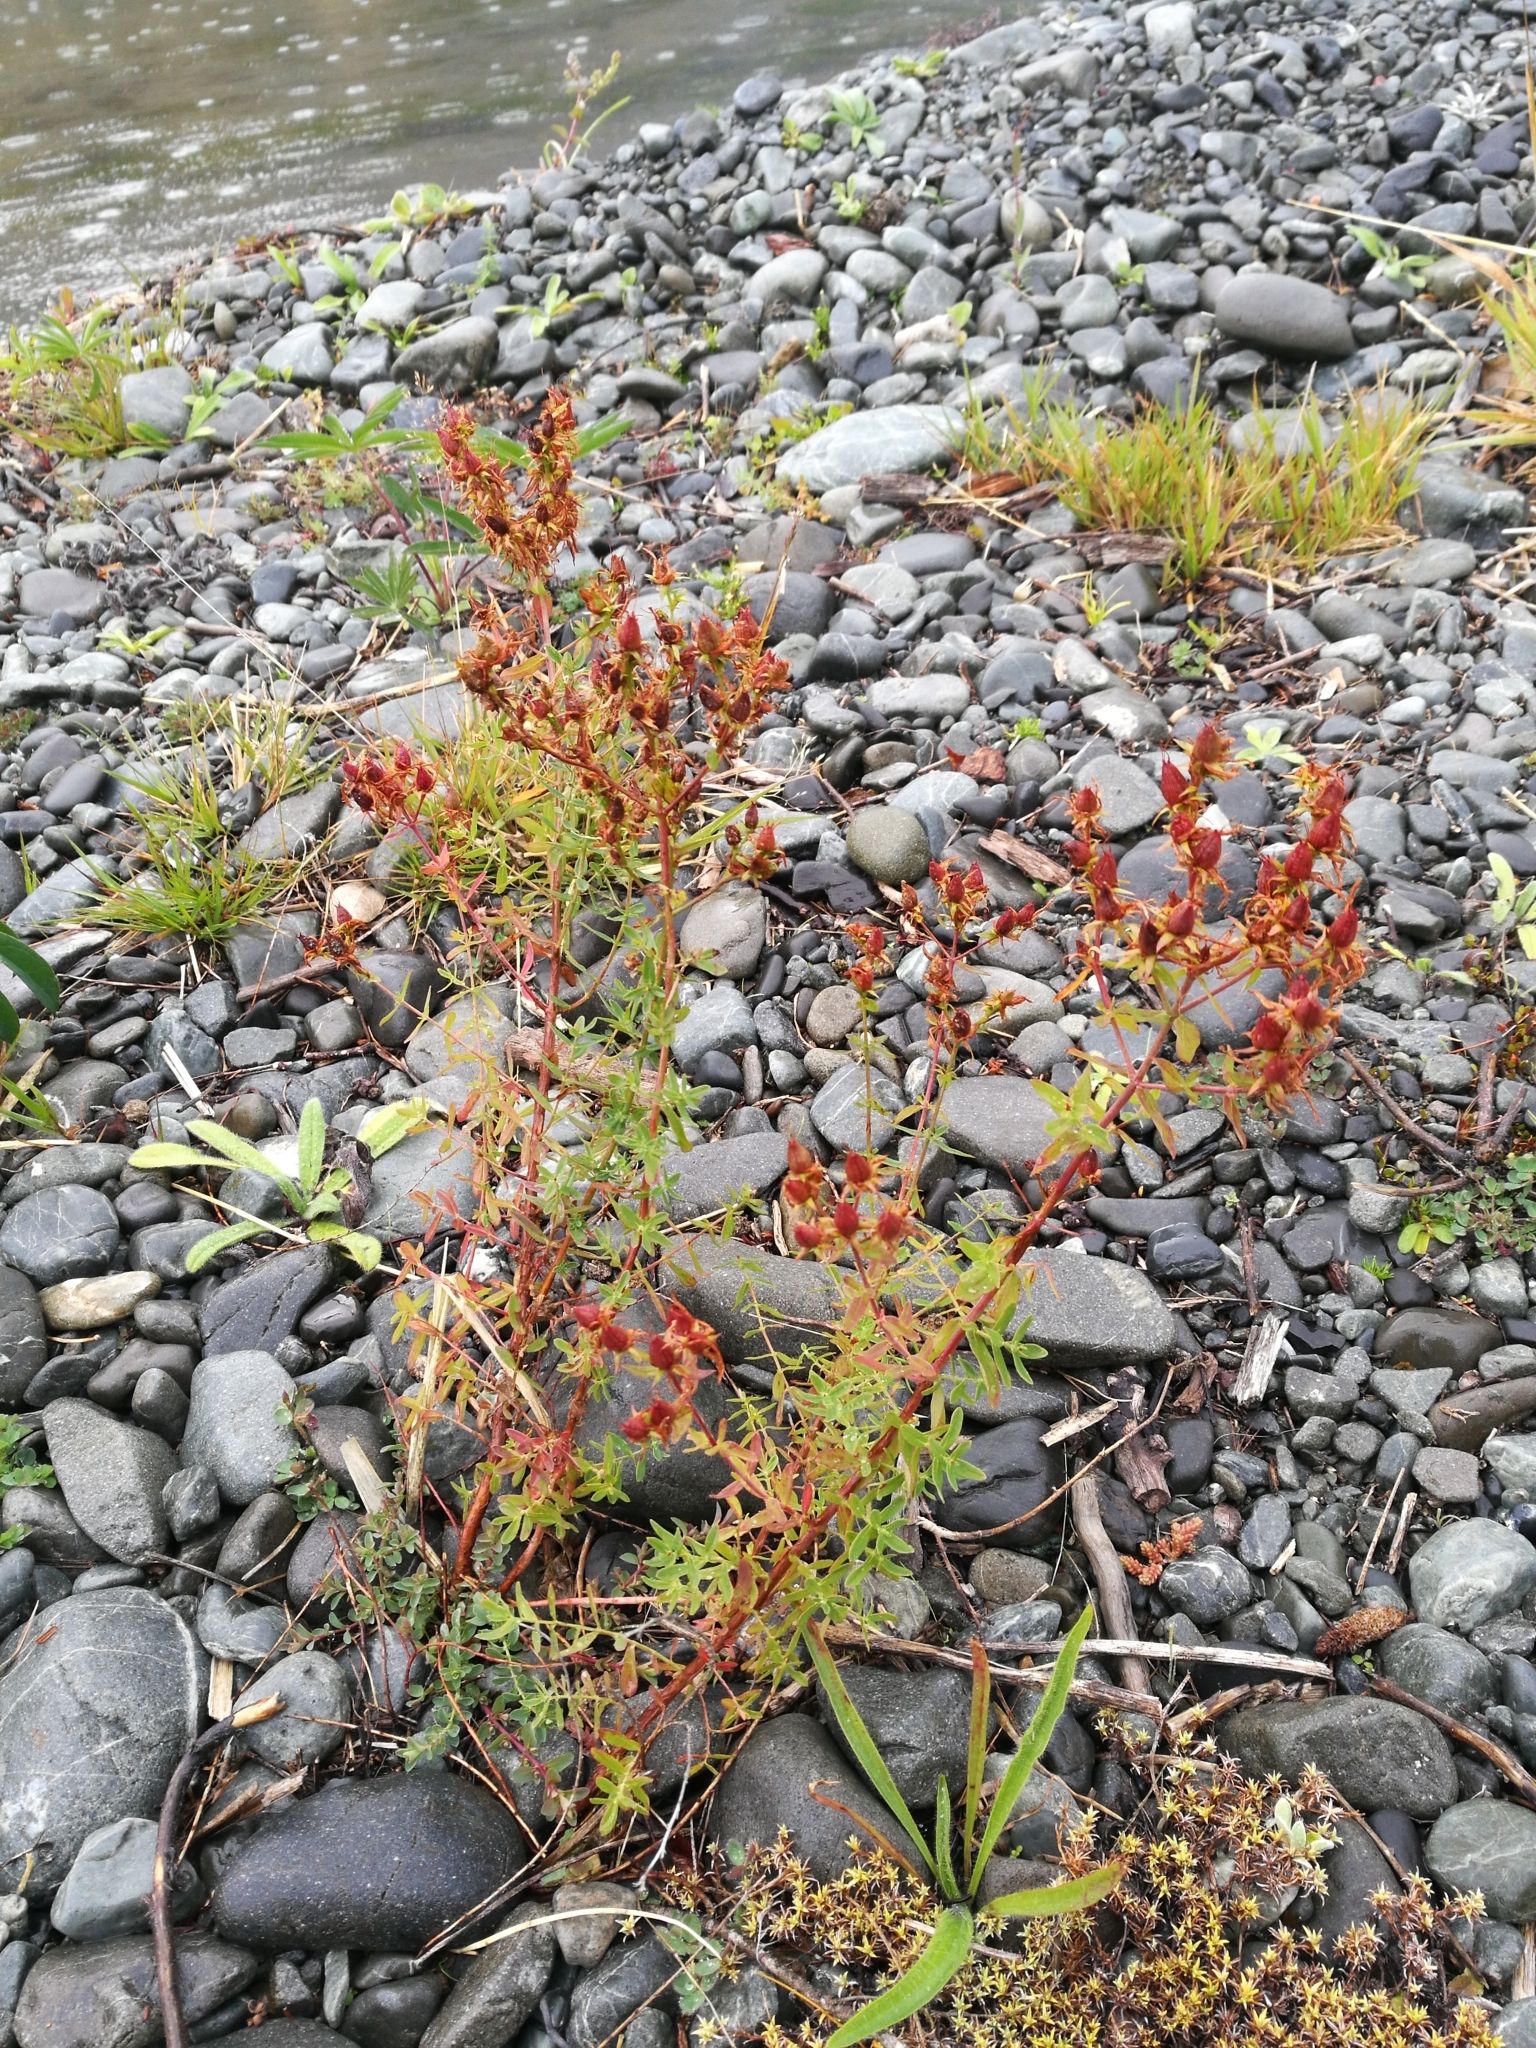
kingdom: Plantae
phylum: Tracheophyta
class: Magnoliopsida
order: Malpighiales
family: Hypericaceae
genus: Hypericum
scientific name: Hypericum perforatum
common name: Common st. johnswort
